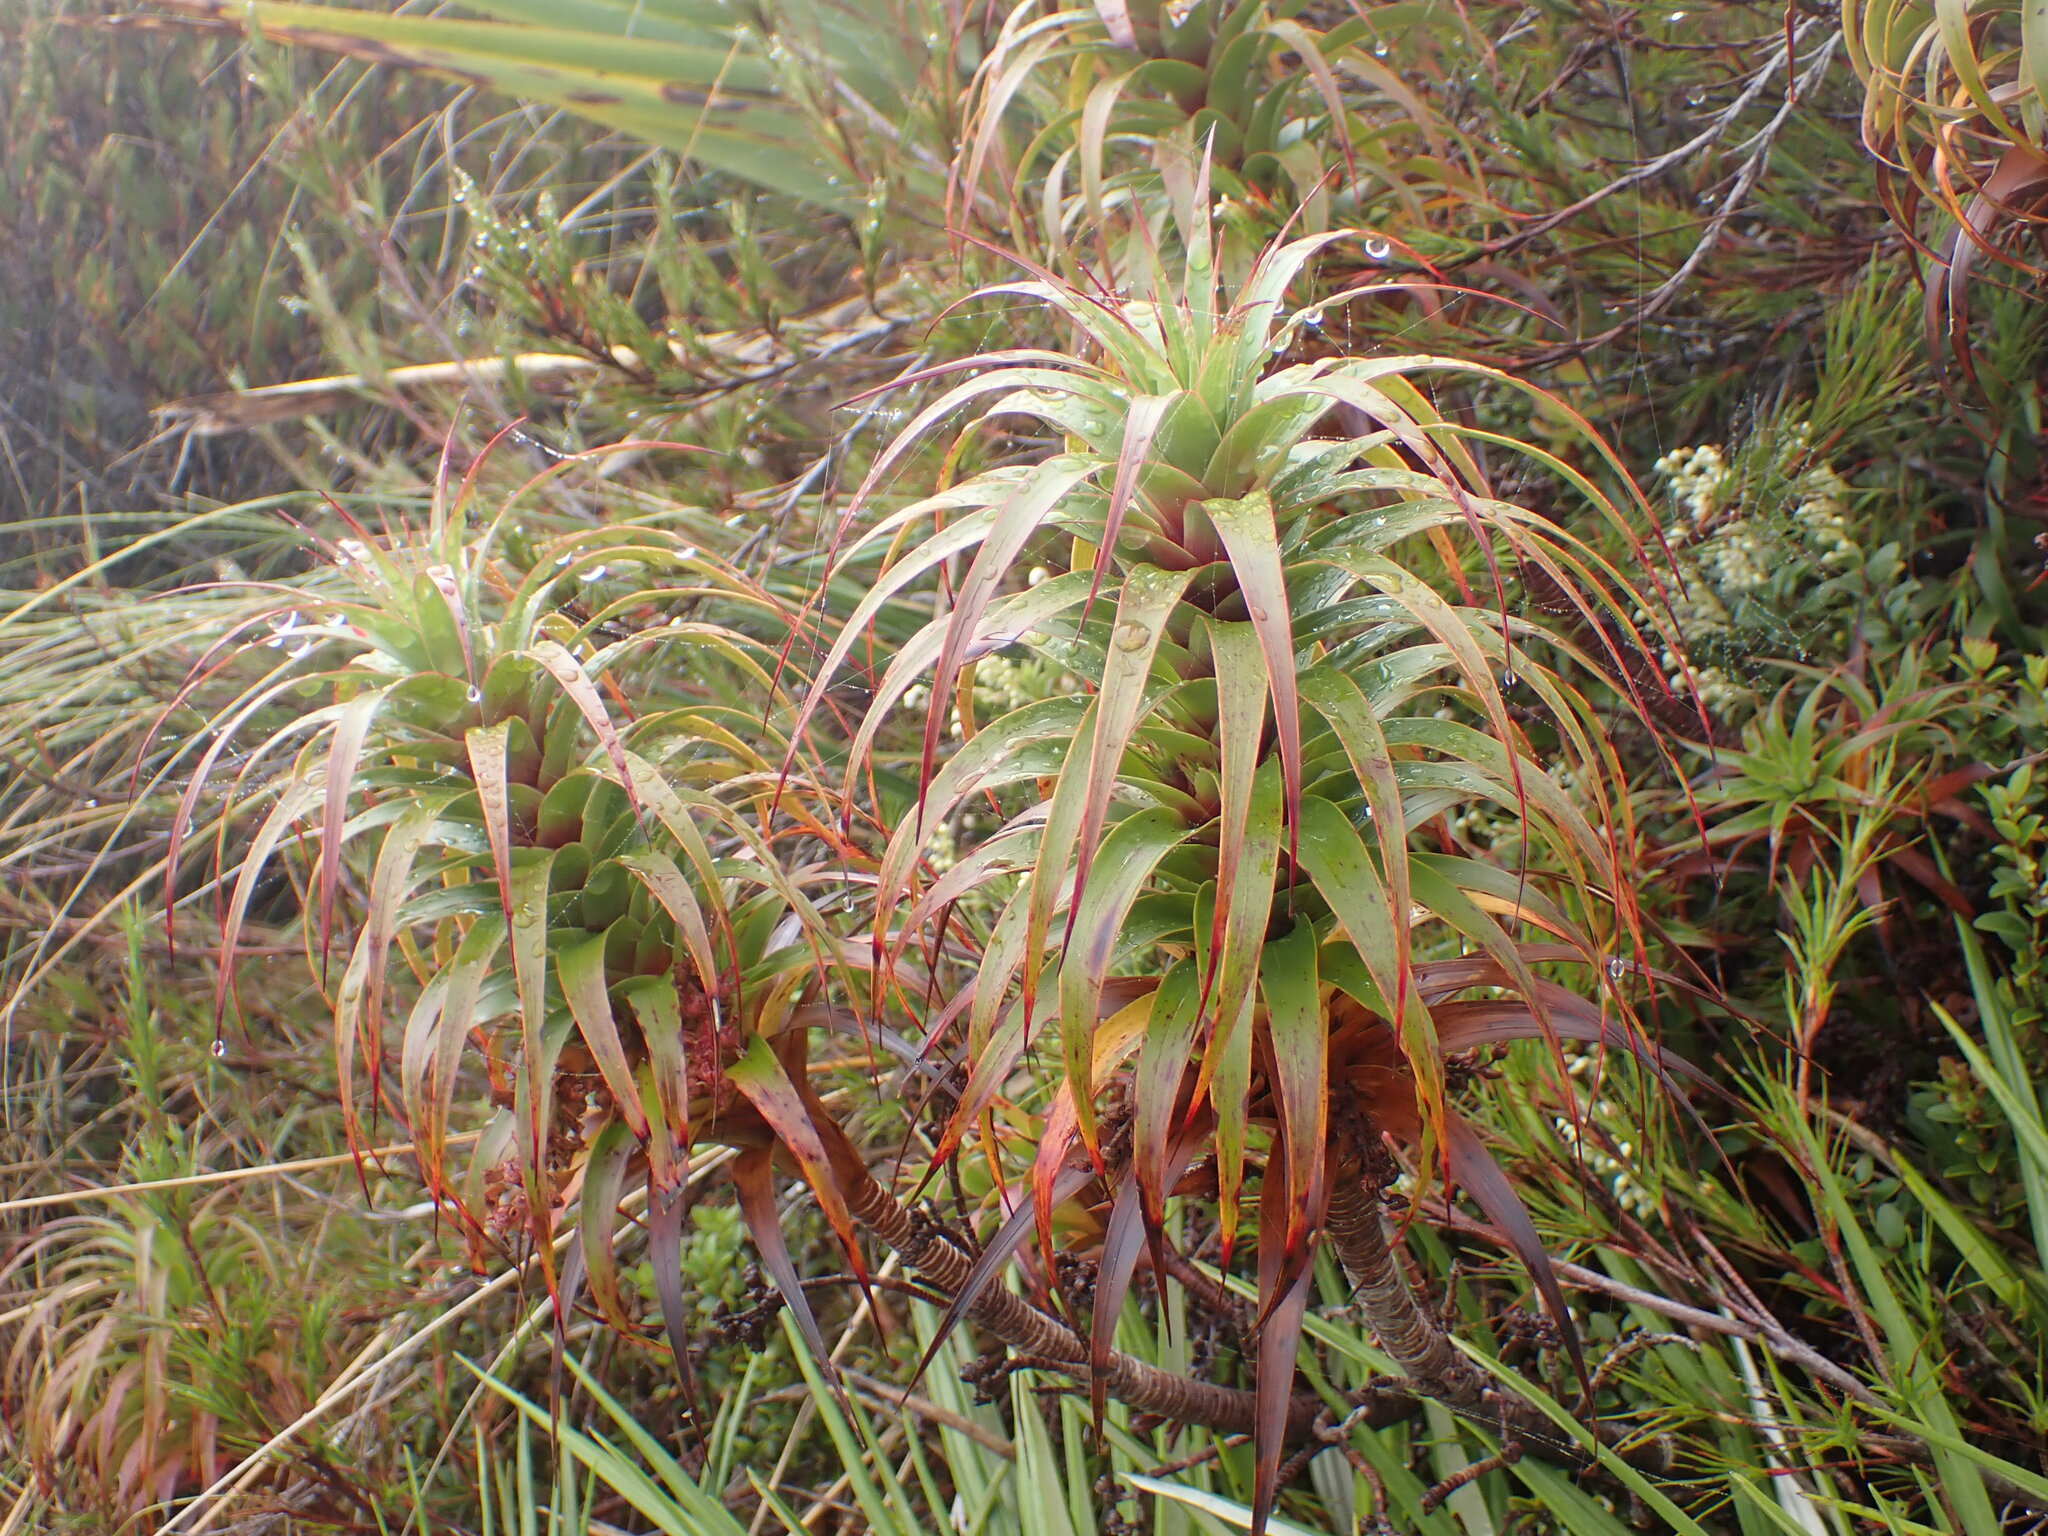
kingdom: Plantae
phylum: Tracheophyta
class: Magnoliopsida
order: Ericales
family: Ericaceae
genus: Dracophyllum
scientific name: Dracophyllum menziesii
